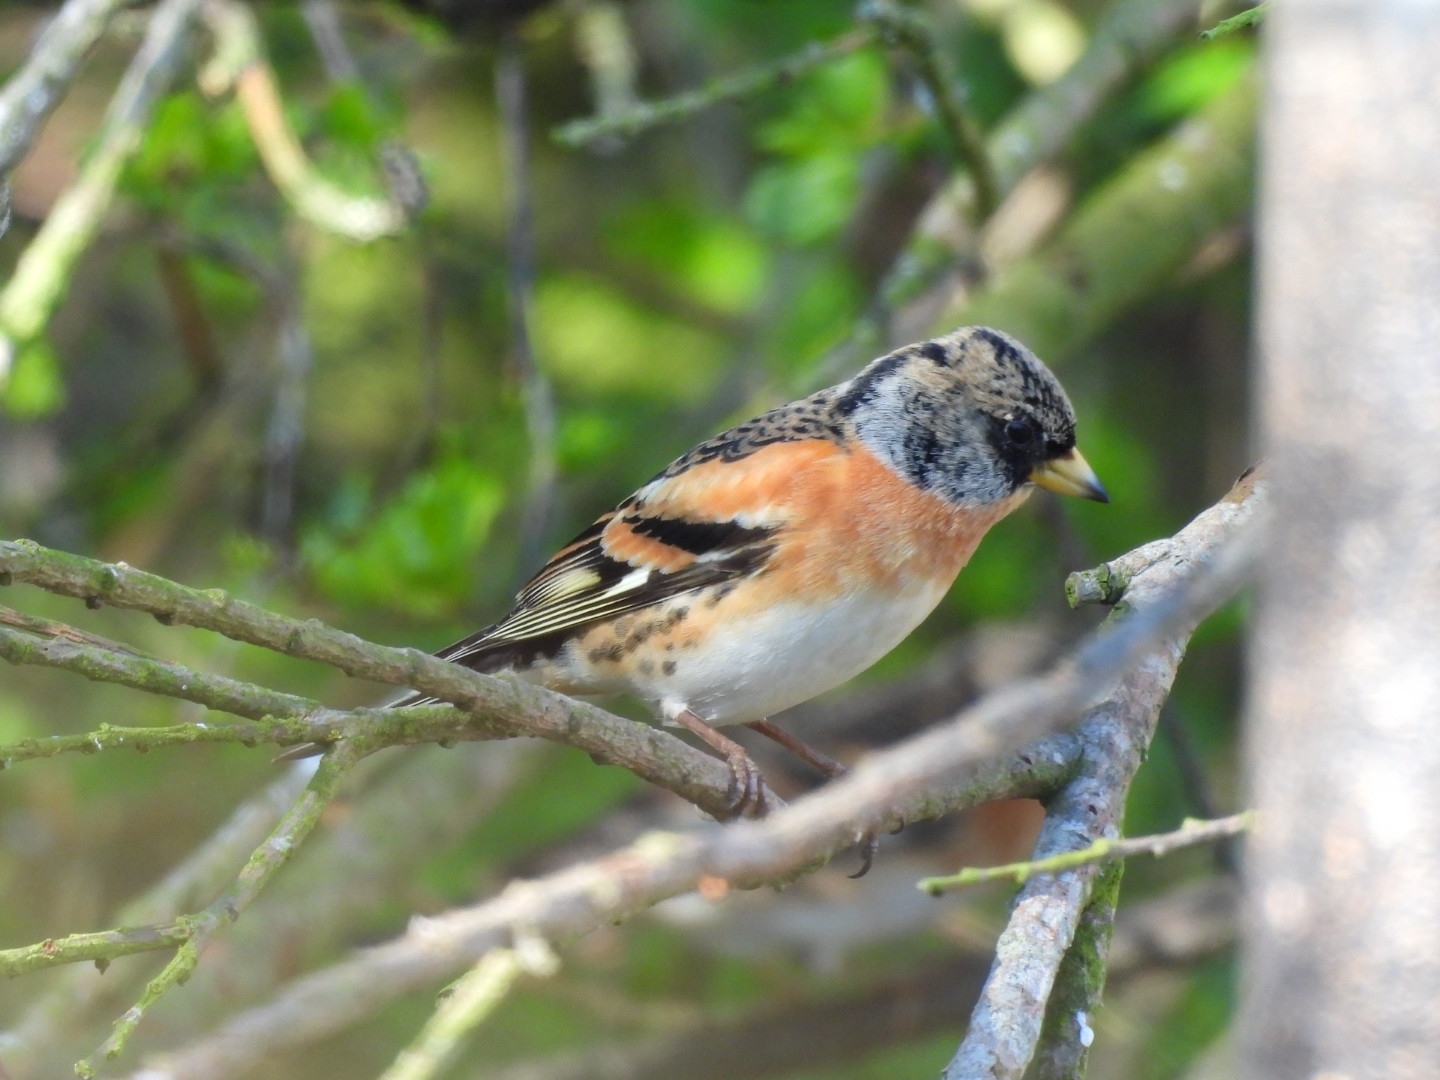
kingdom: Animalia
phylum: Chordata
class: Aves
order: Passeriformes
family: Fringillidae
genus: Fringilla
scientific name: Fringilla montifringilla
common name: Brambling
